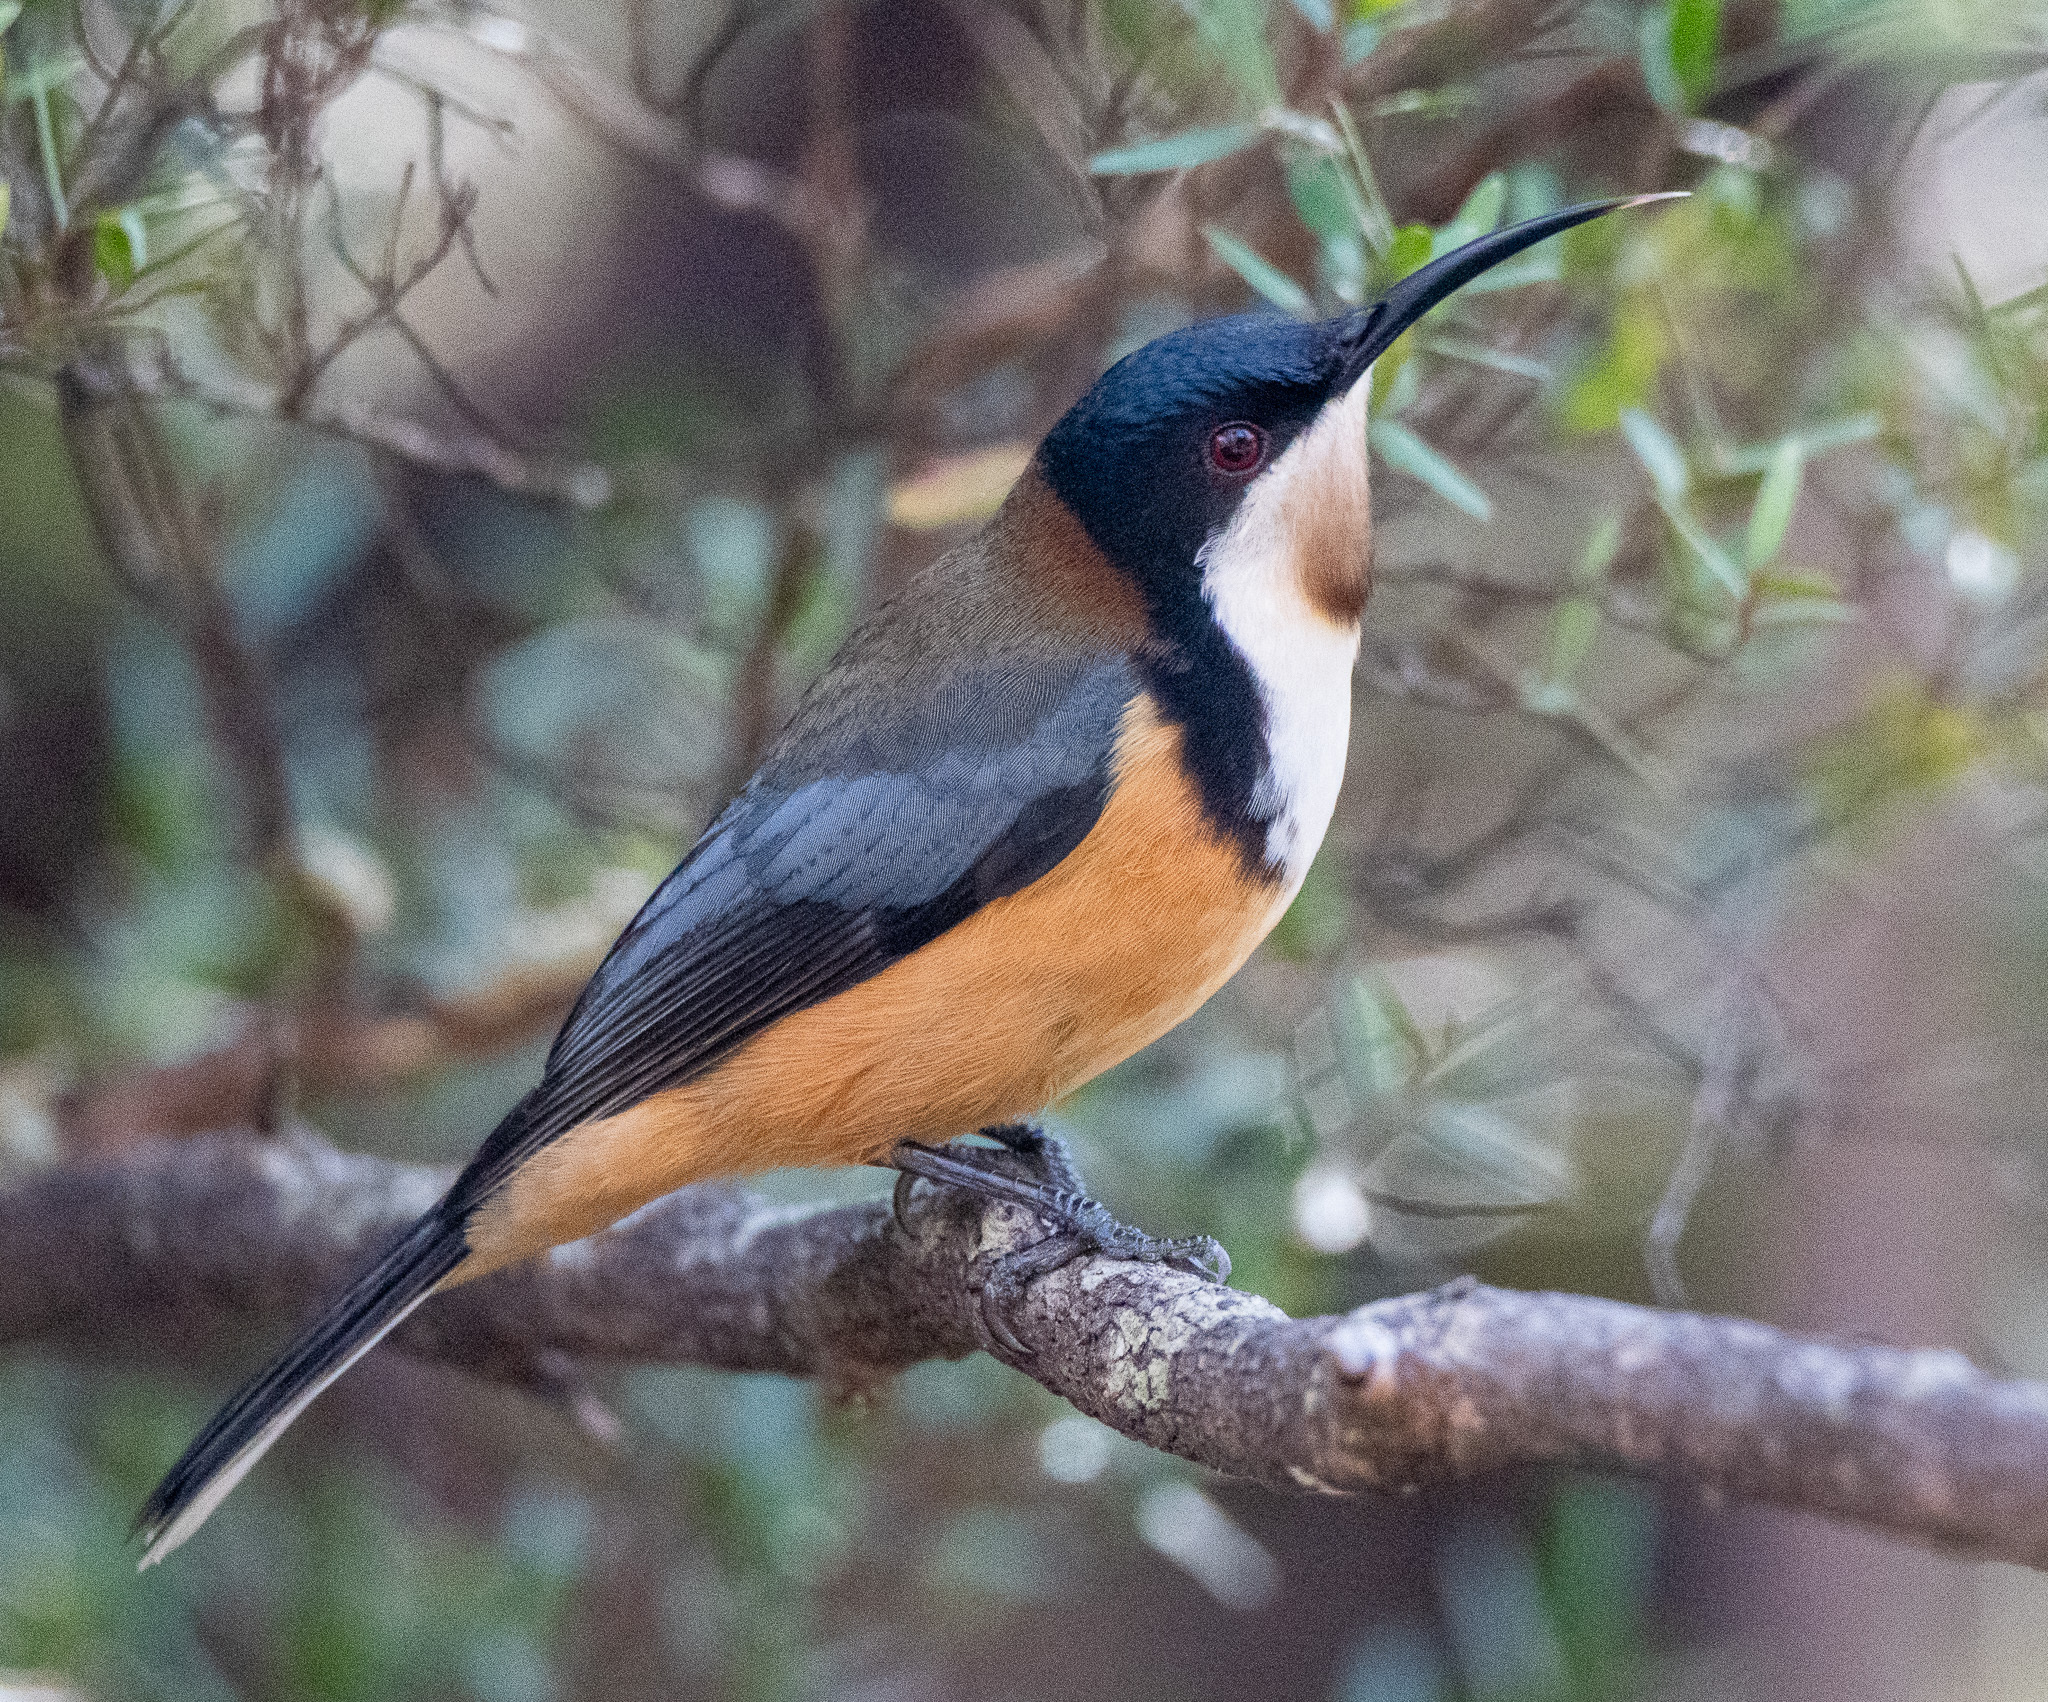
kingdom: Animalia
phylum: Chordata
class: Aves
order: Passeriformes
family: Meliphagidae
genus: Acanthorhynchus
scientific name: Acanthorhynchus tenuirostris
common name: Eastern spinebill
